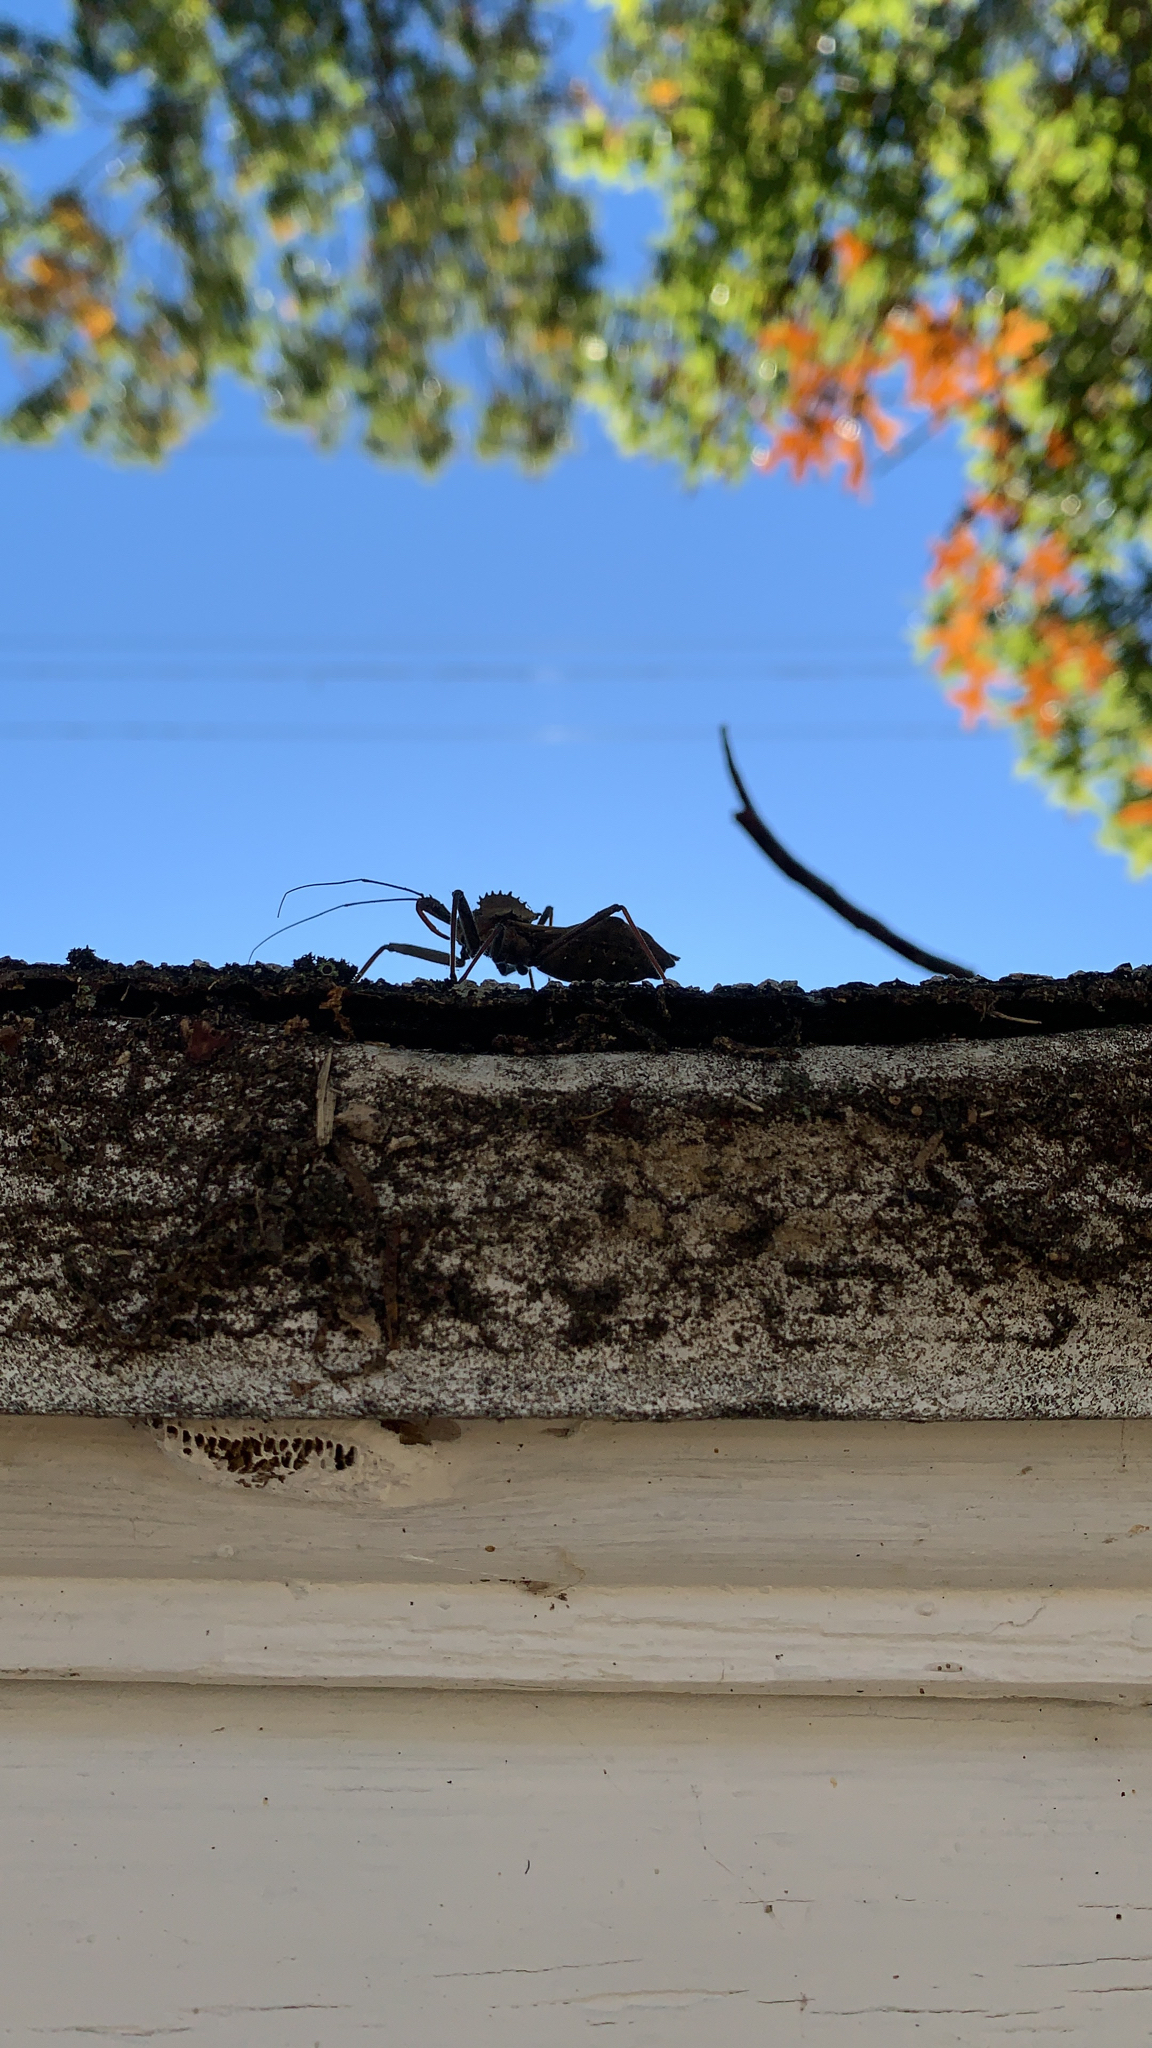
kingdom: Animalia
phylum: Arthropoda
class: Insecta
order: Hemiptera
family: Reduviidae
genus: Arilus
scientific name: Arilus cristatus
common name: North american wheel bug
